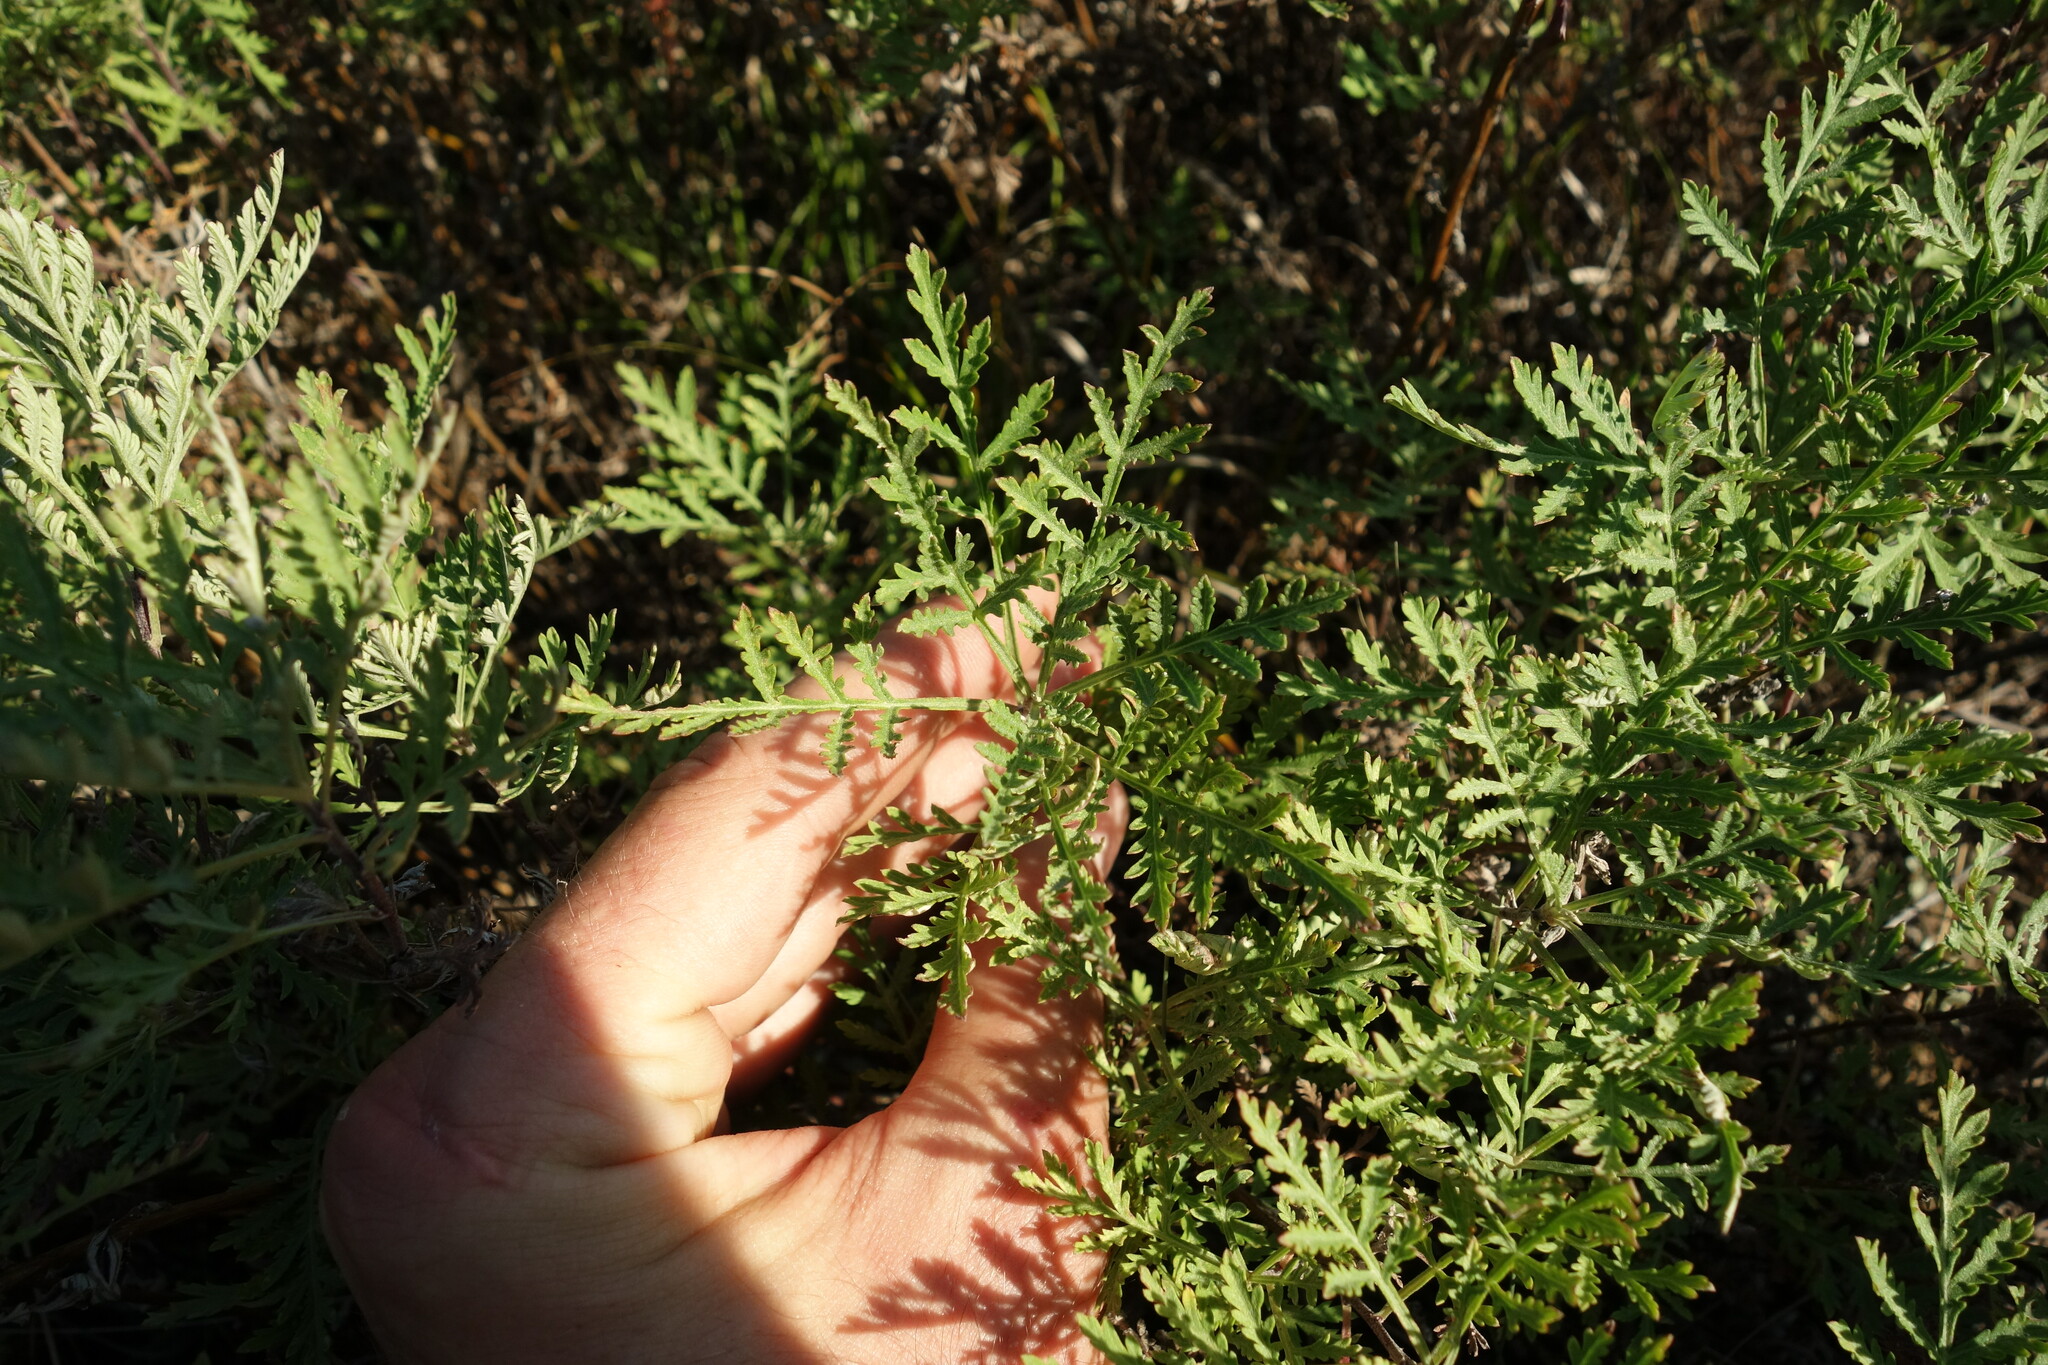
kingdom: Plantae
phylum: Tracheophyta
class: Magnoliopsida
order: Asterales
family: Asteraceae
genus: Artemisia
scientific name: Artemisia gmelinii
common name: Gmelin's wormwood
